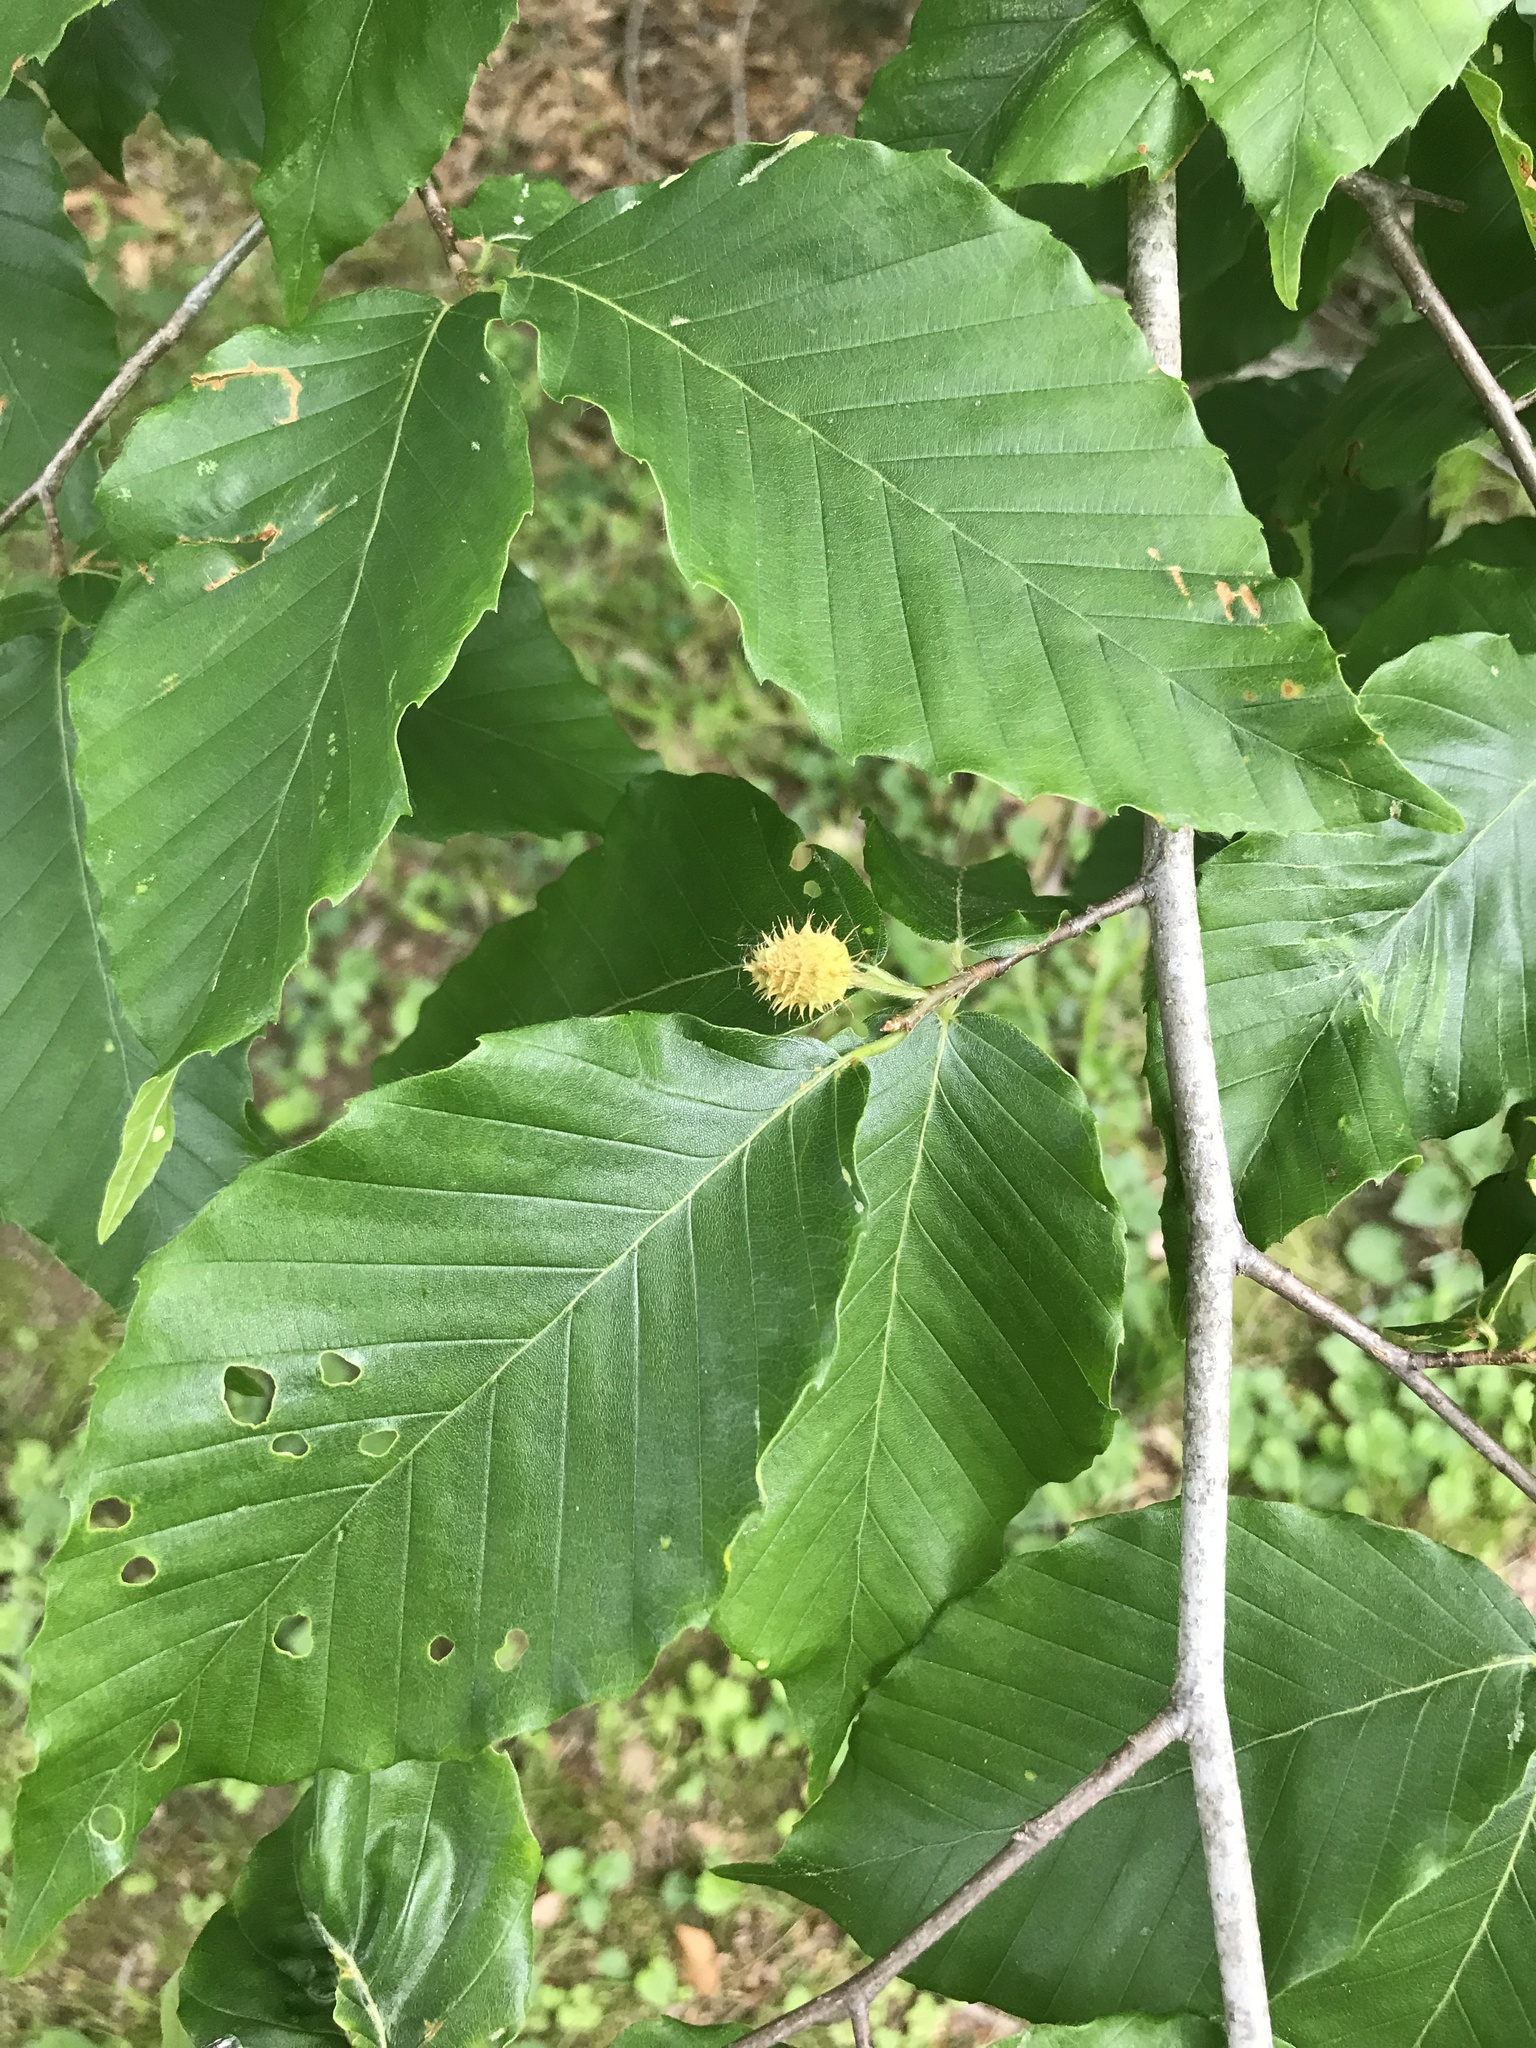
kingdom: Plantae
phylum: Tracheophyta
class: Magnoliopsida
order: Fagales
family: Fagaceae
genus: Fagus
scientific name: Fagus grandifolia
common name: American beech
